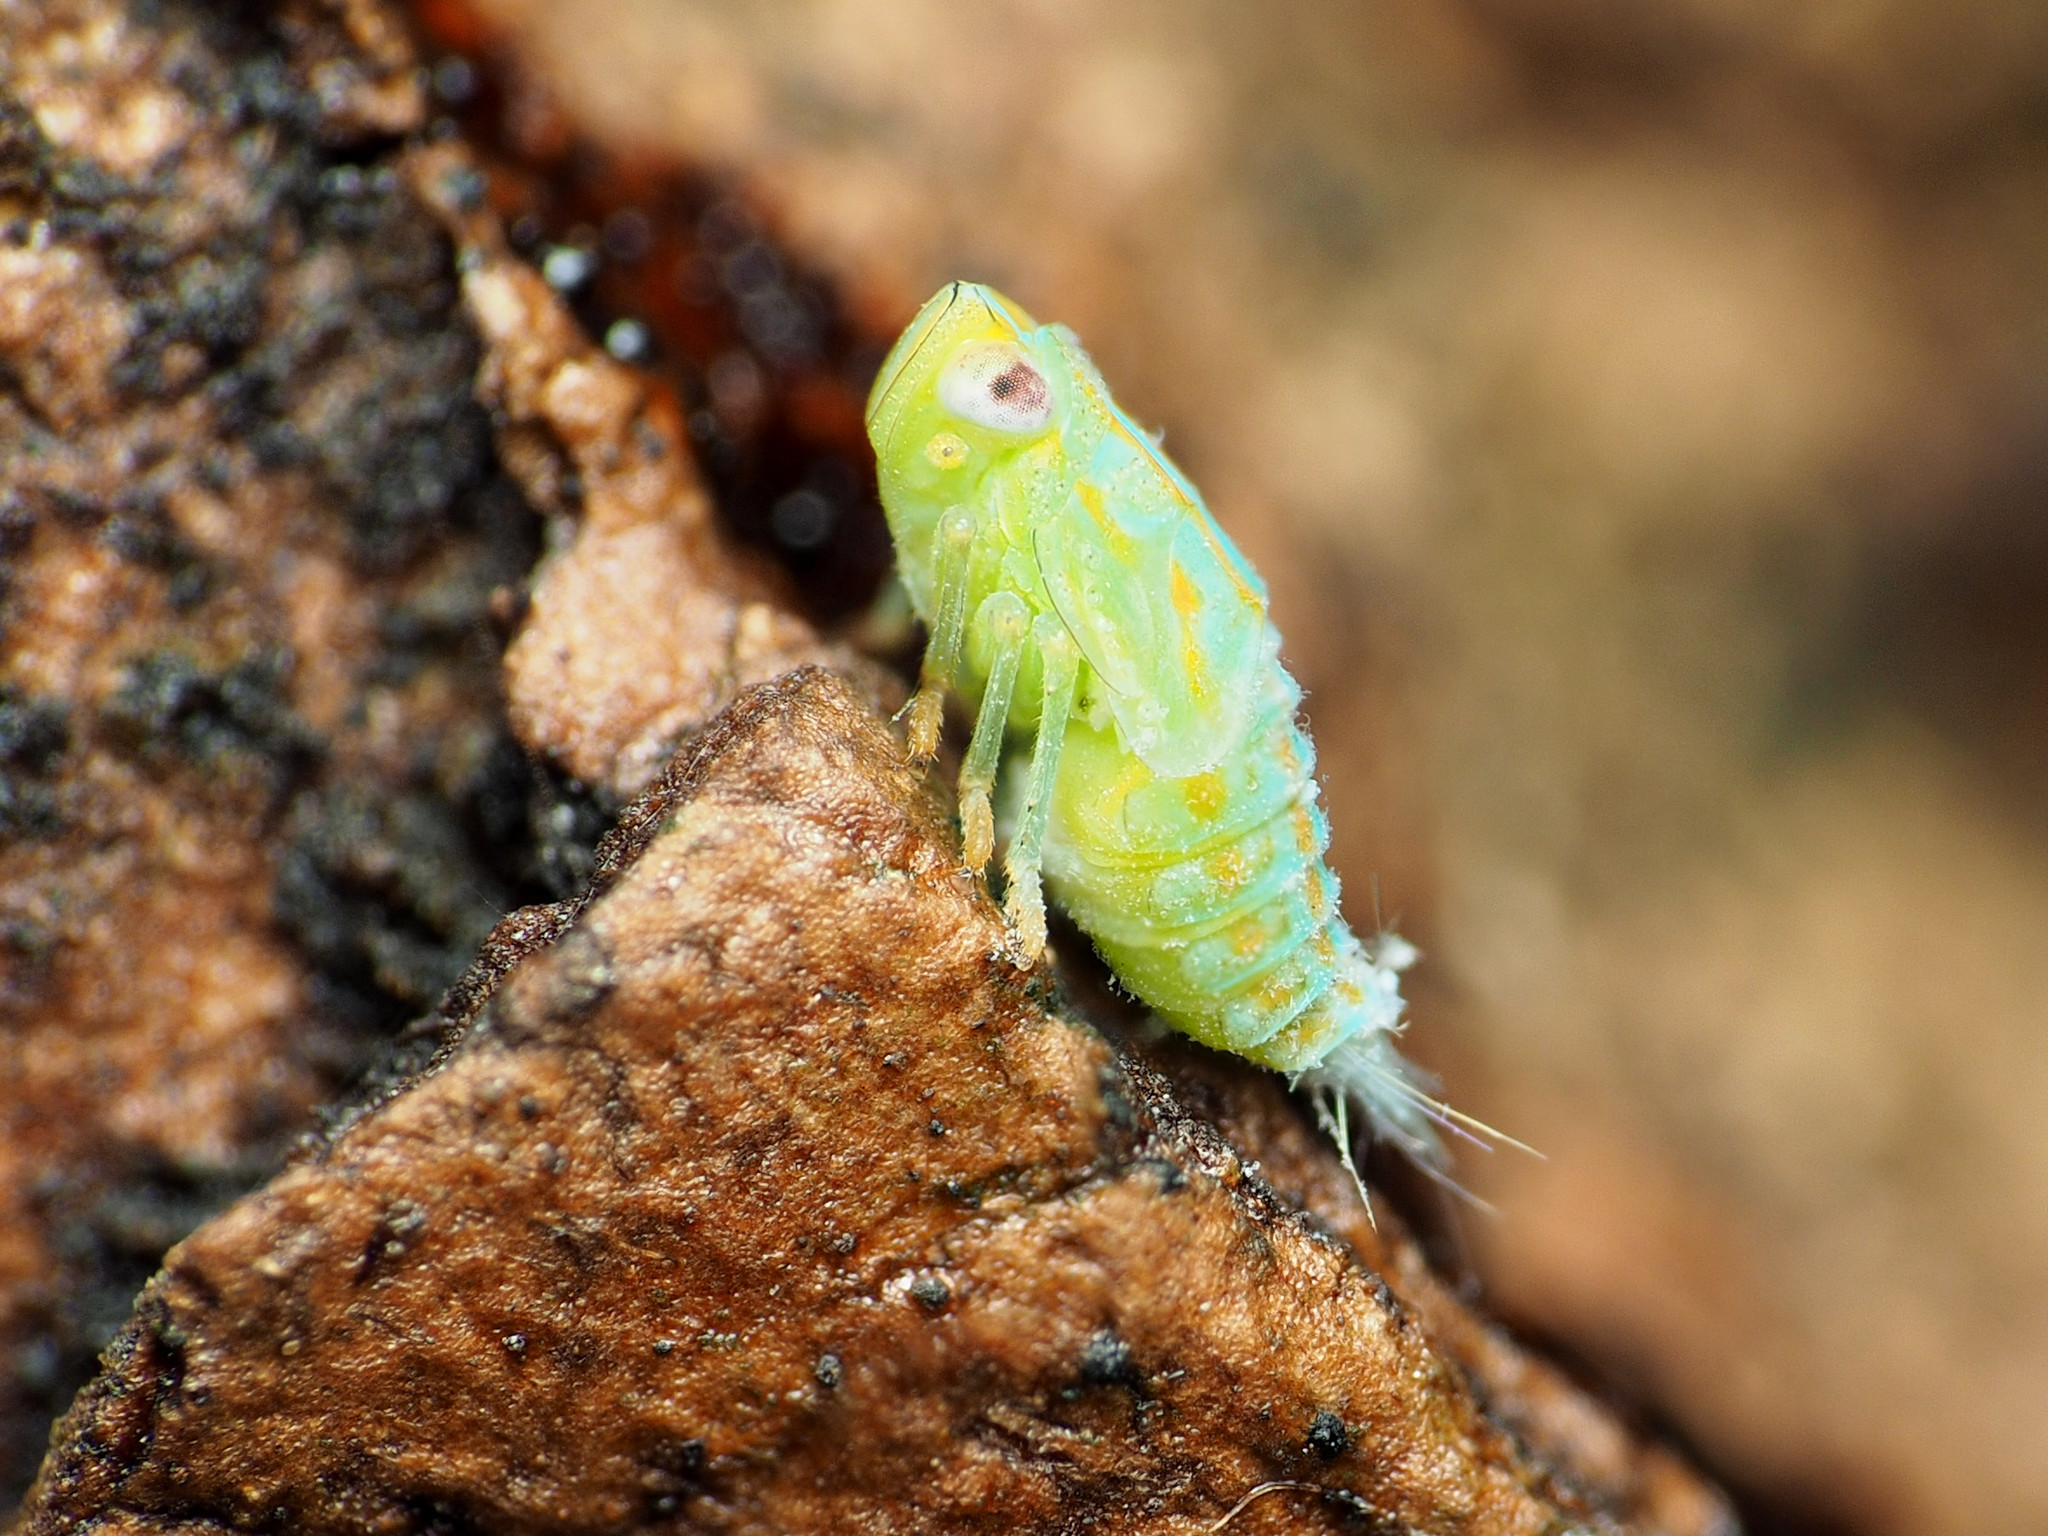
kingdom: Animalia
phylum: Arthropoda
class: Insecta
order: Hemiptera
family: Issidae
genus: Aplos
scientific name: Aplos simplex
